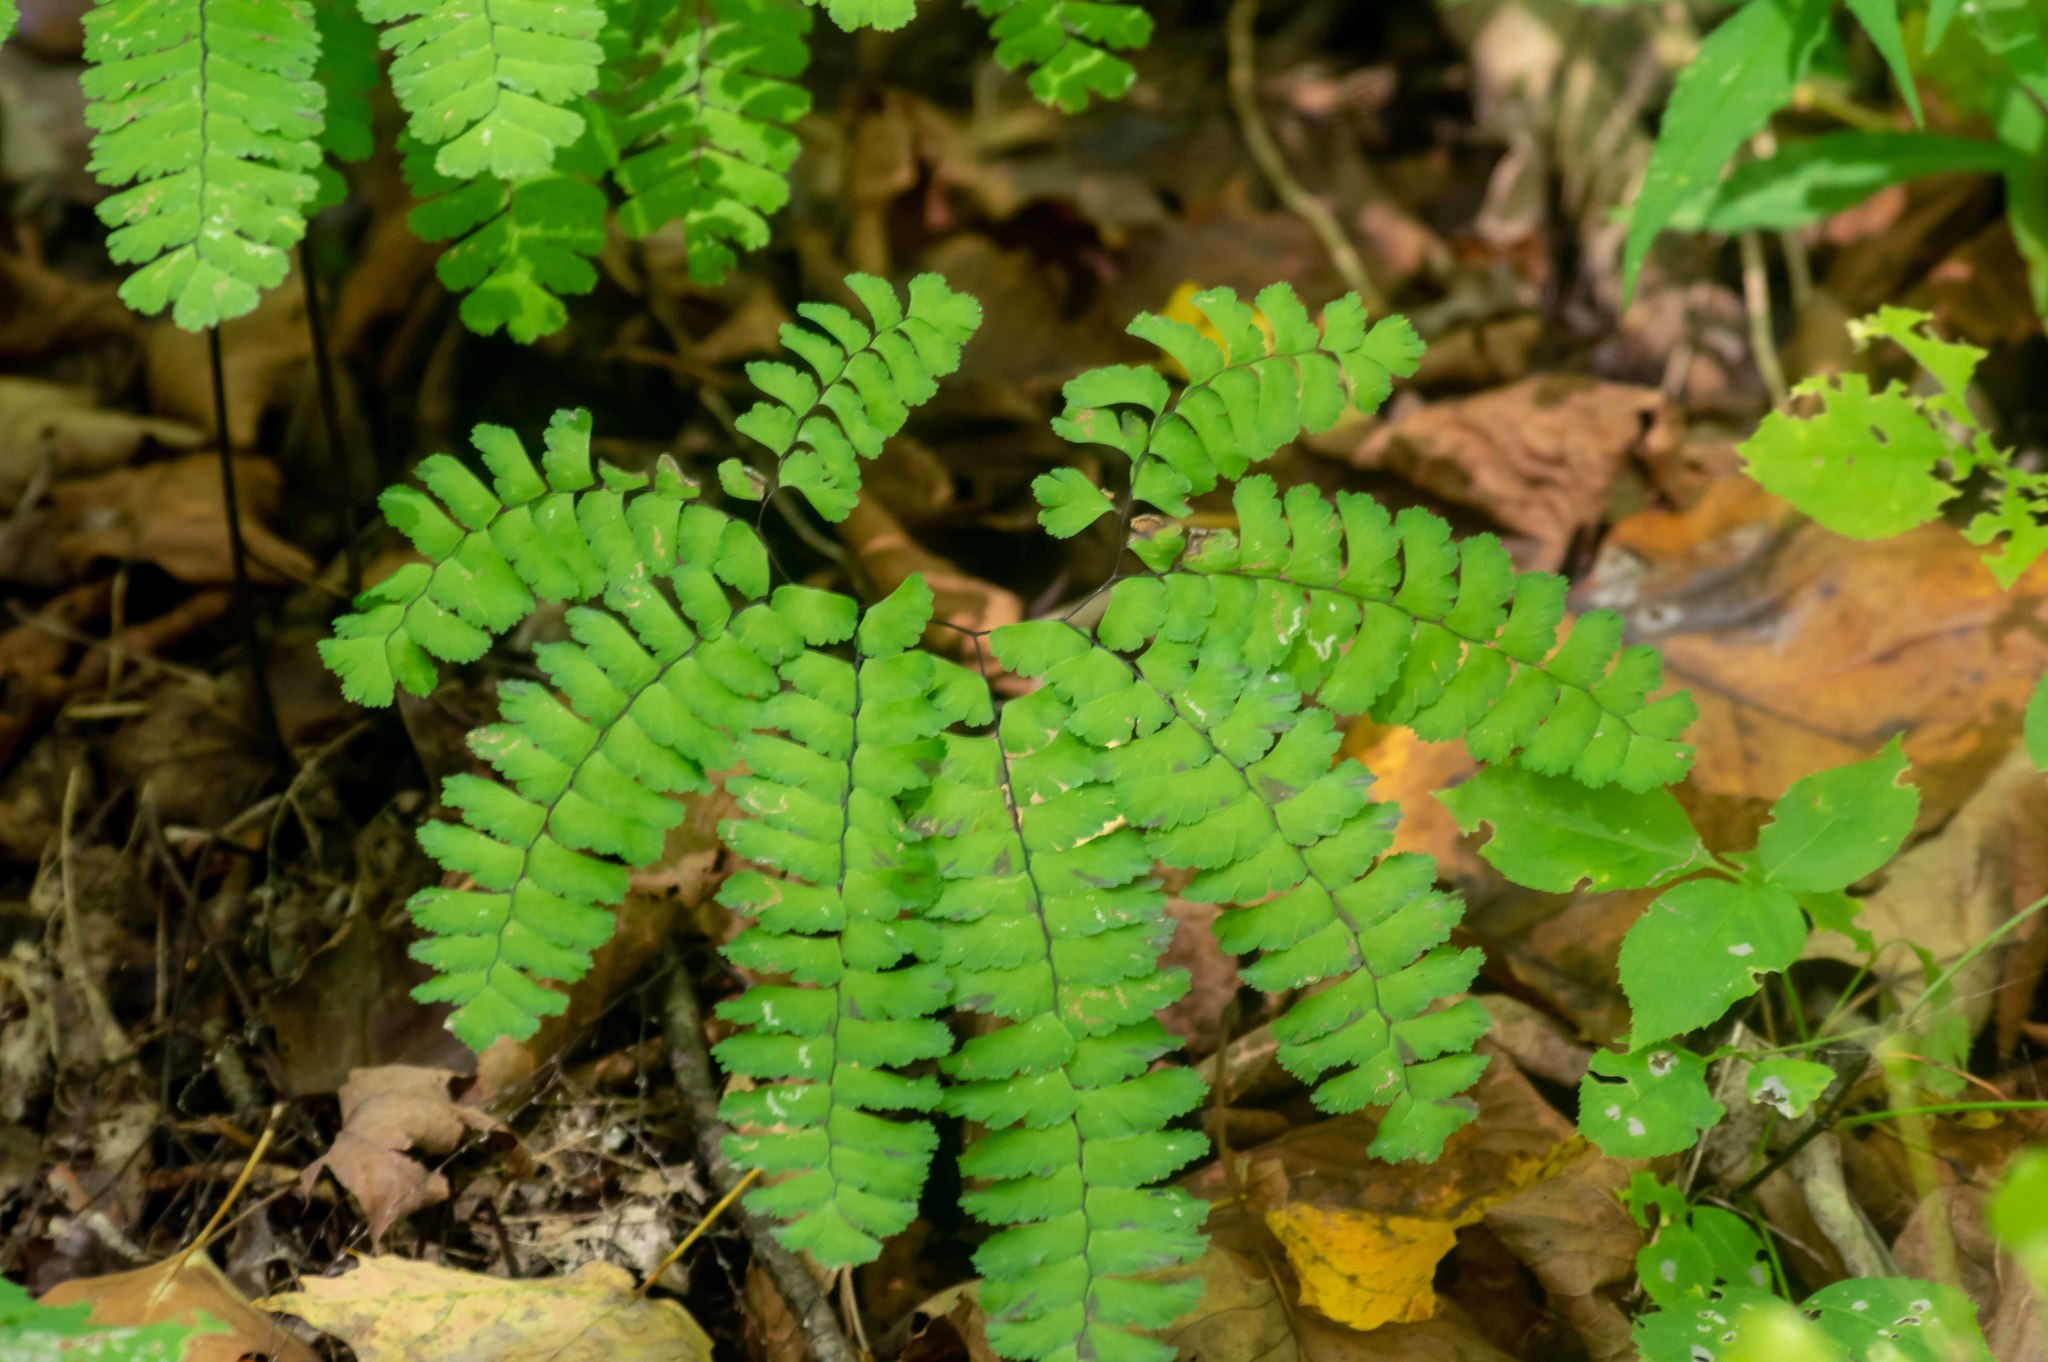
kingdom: Plantae
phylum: Tracheophyta
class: Polypodiopsida
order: Polypodiales
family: Pteridaceae
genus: Adiantum
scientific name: Adiantum pedatum
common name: Five-finger fern
